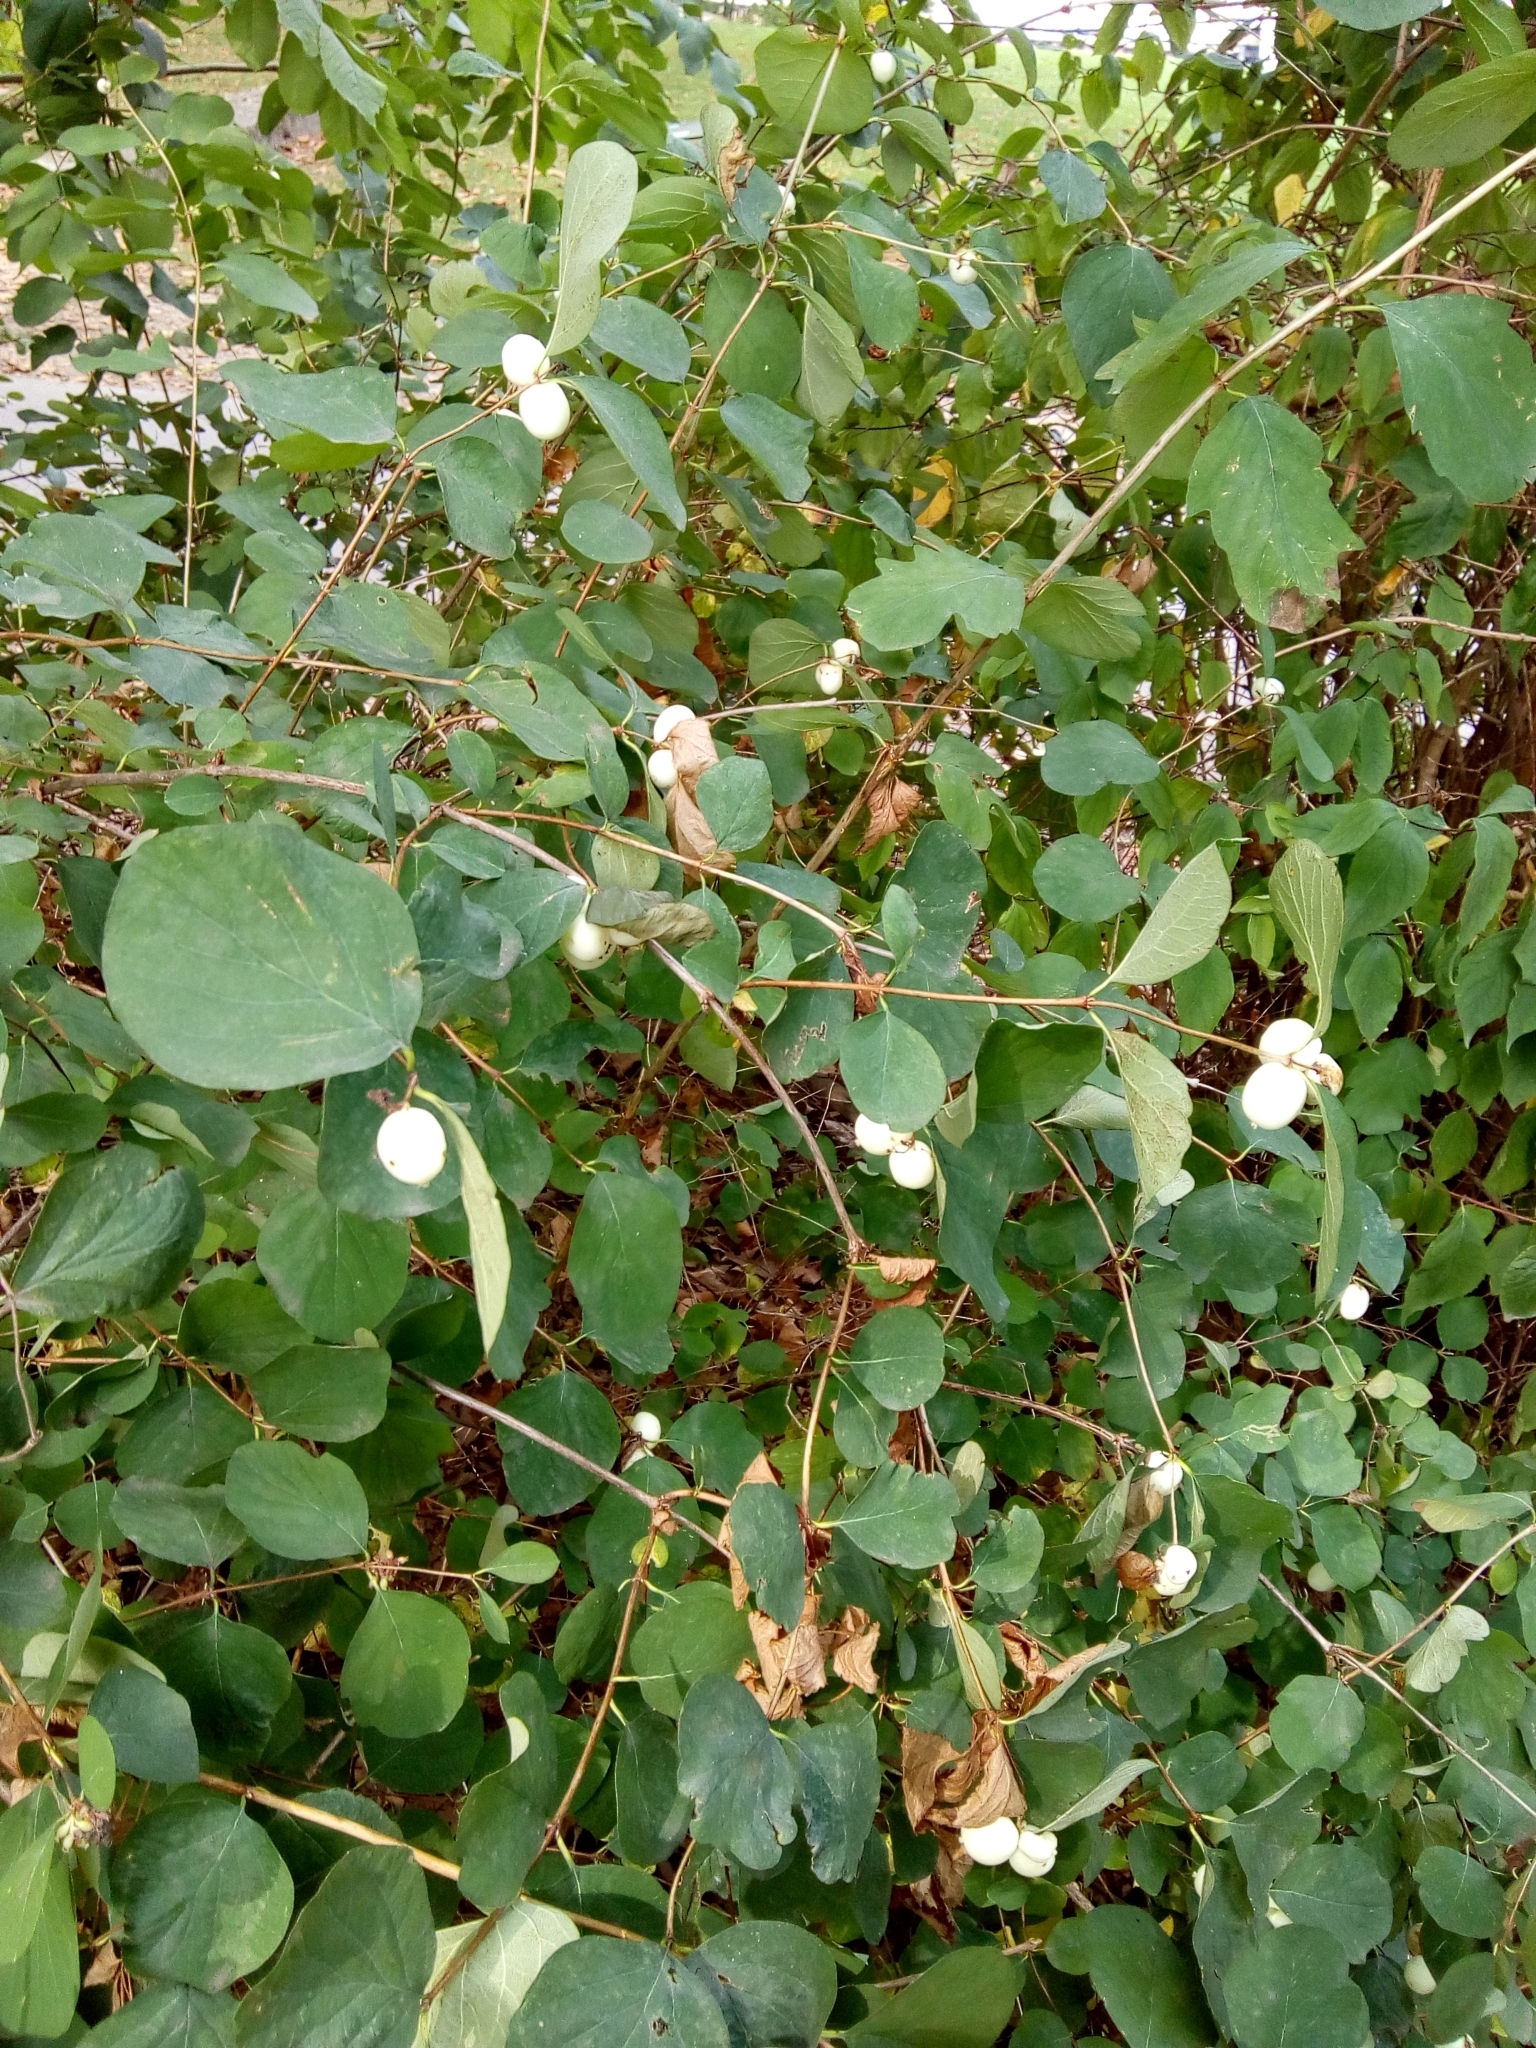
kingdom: Plantae
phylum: Tracheophyta
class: Magnoliopsida
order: Dipsacales
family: Caprifoliaceae
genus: Symphoricarpos
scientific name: Symphoricarpos albus
